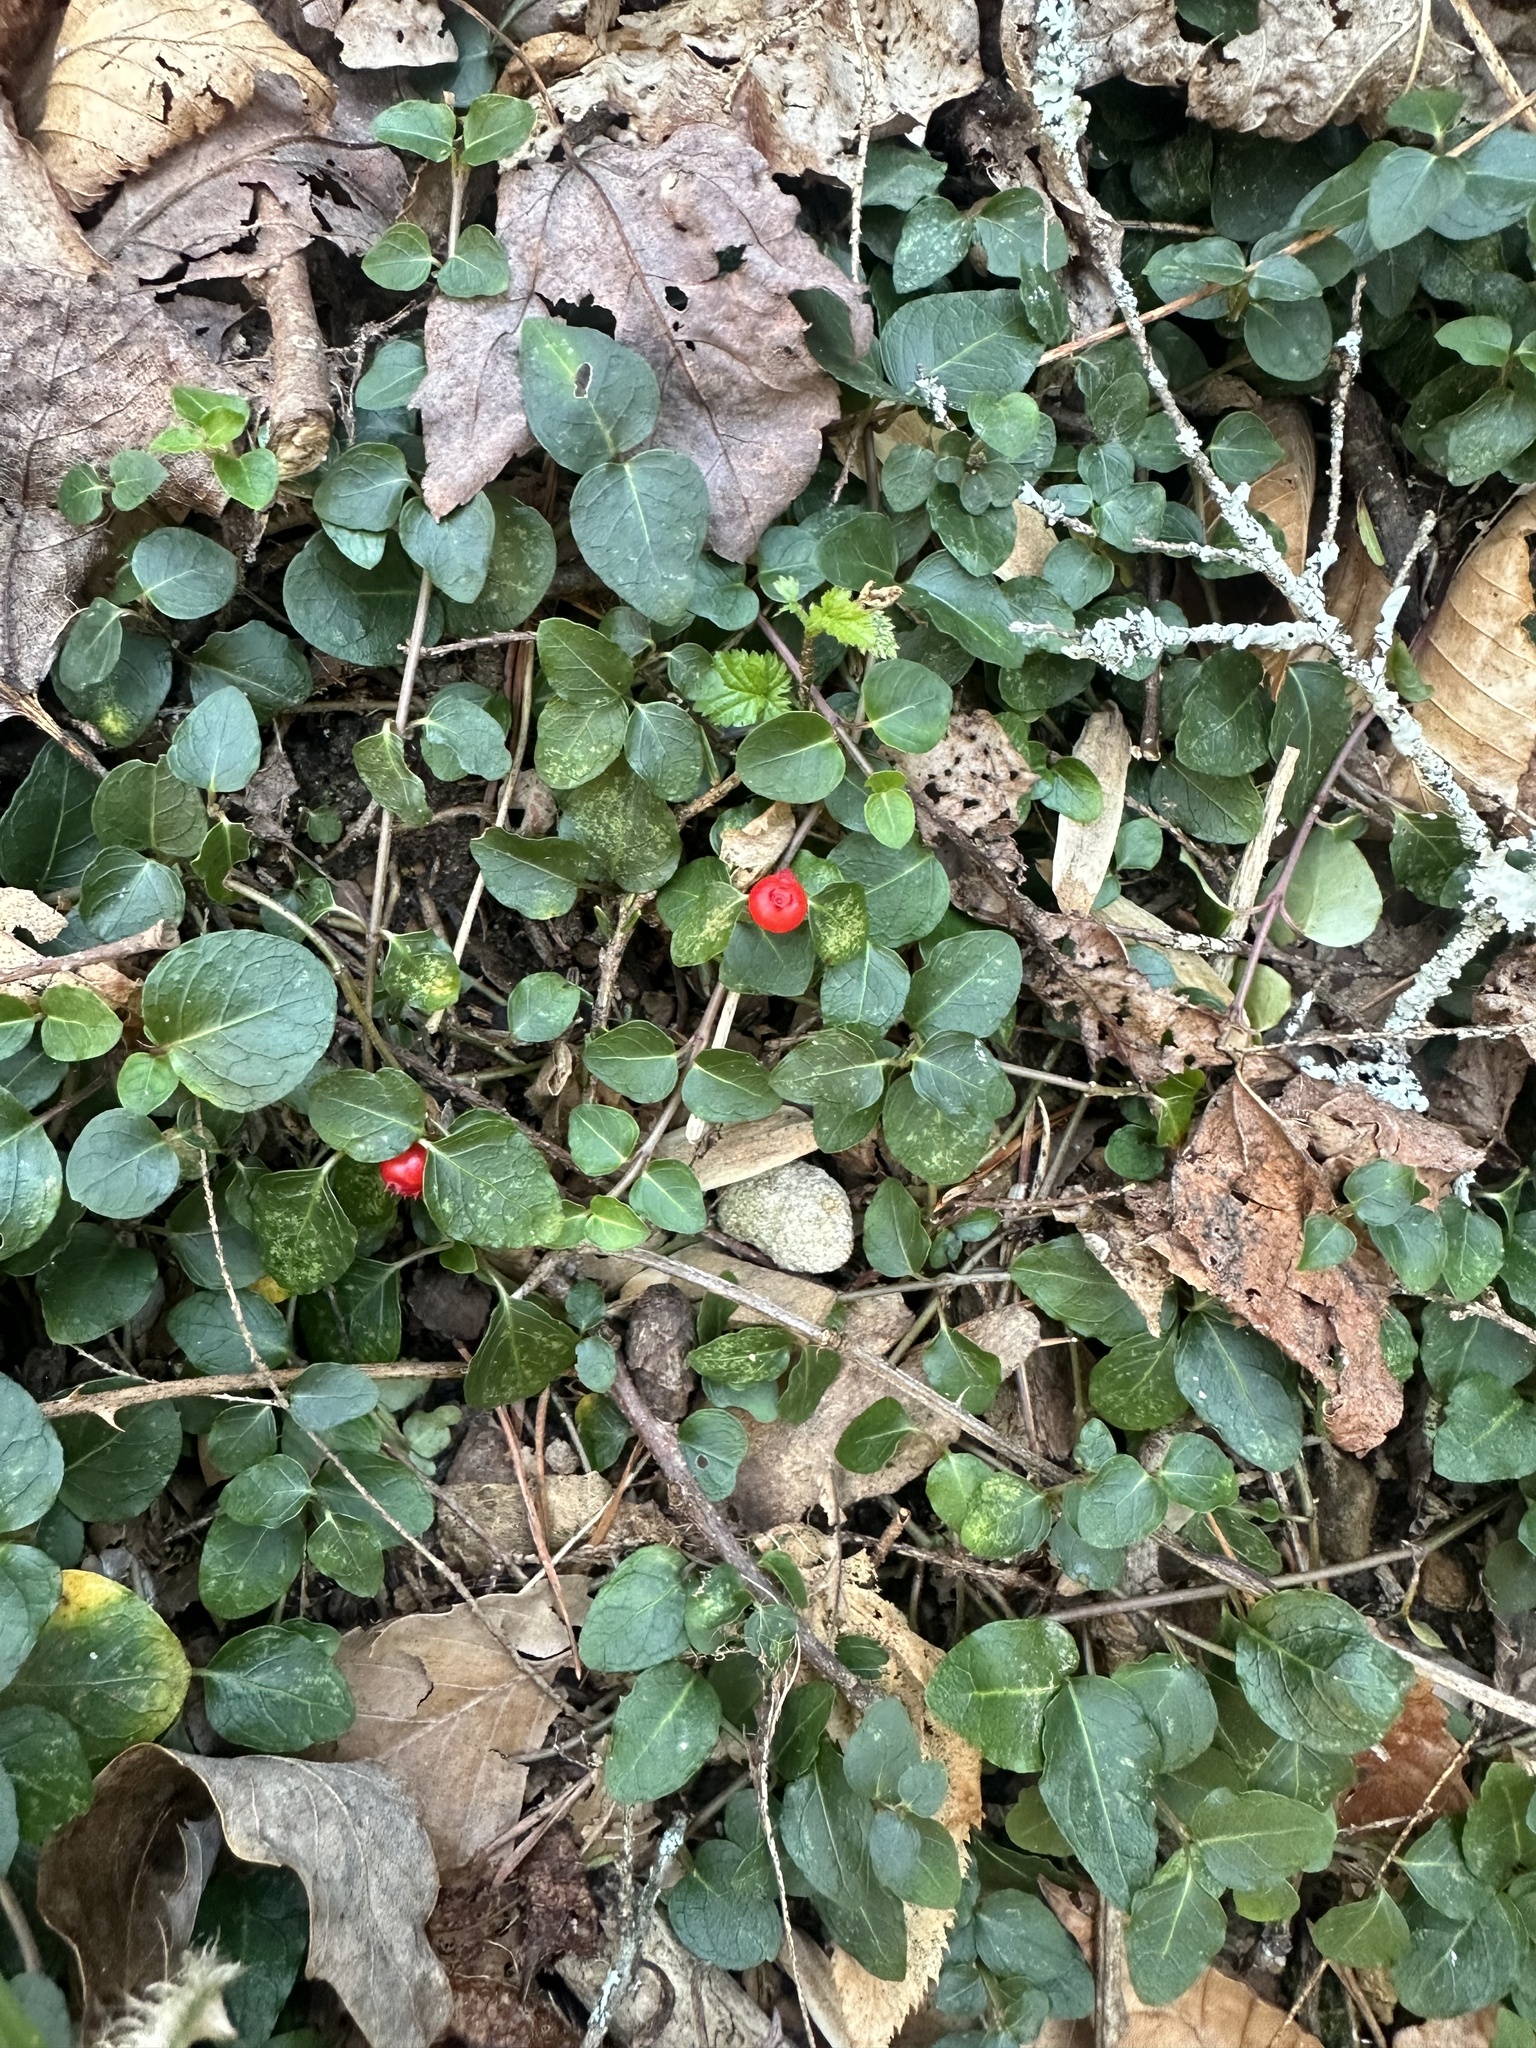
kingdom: Plantae
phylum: Tracheophyta
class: Magnoliopsida
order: Gentianales
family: Rubiaceae
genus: Mitchella
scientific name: Mitchella repens
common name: Partridge-berry
